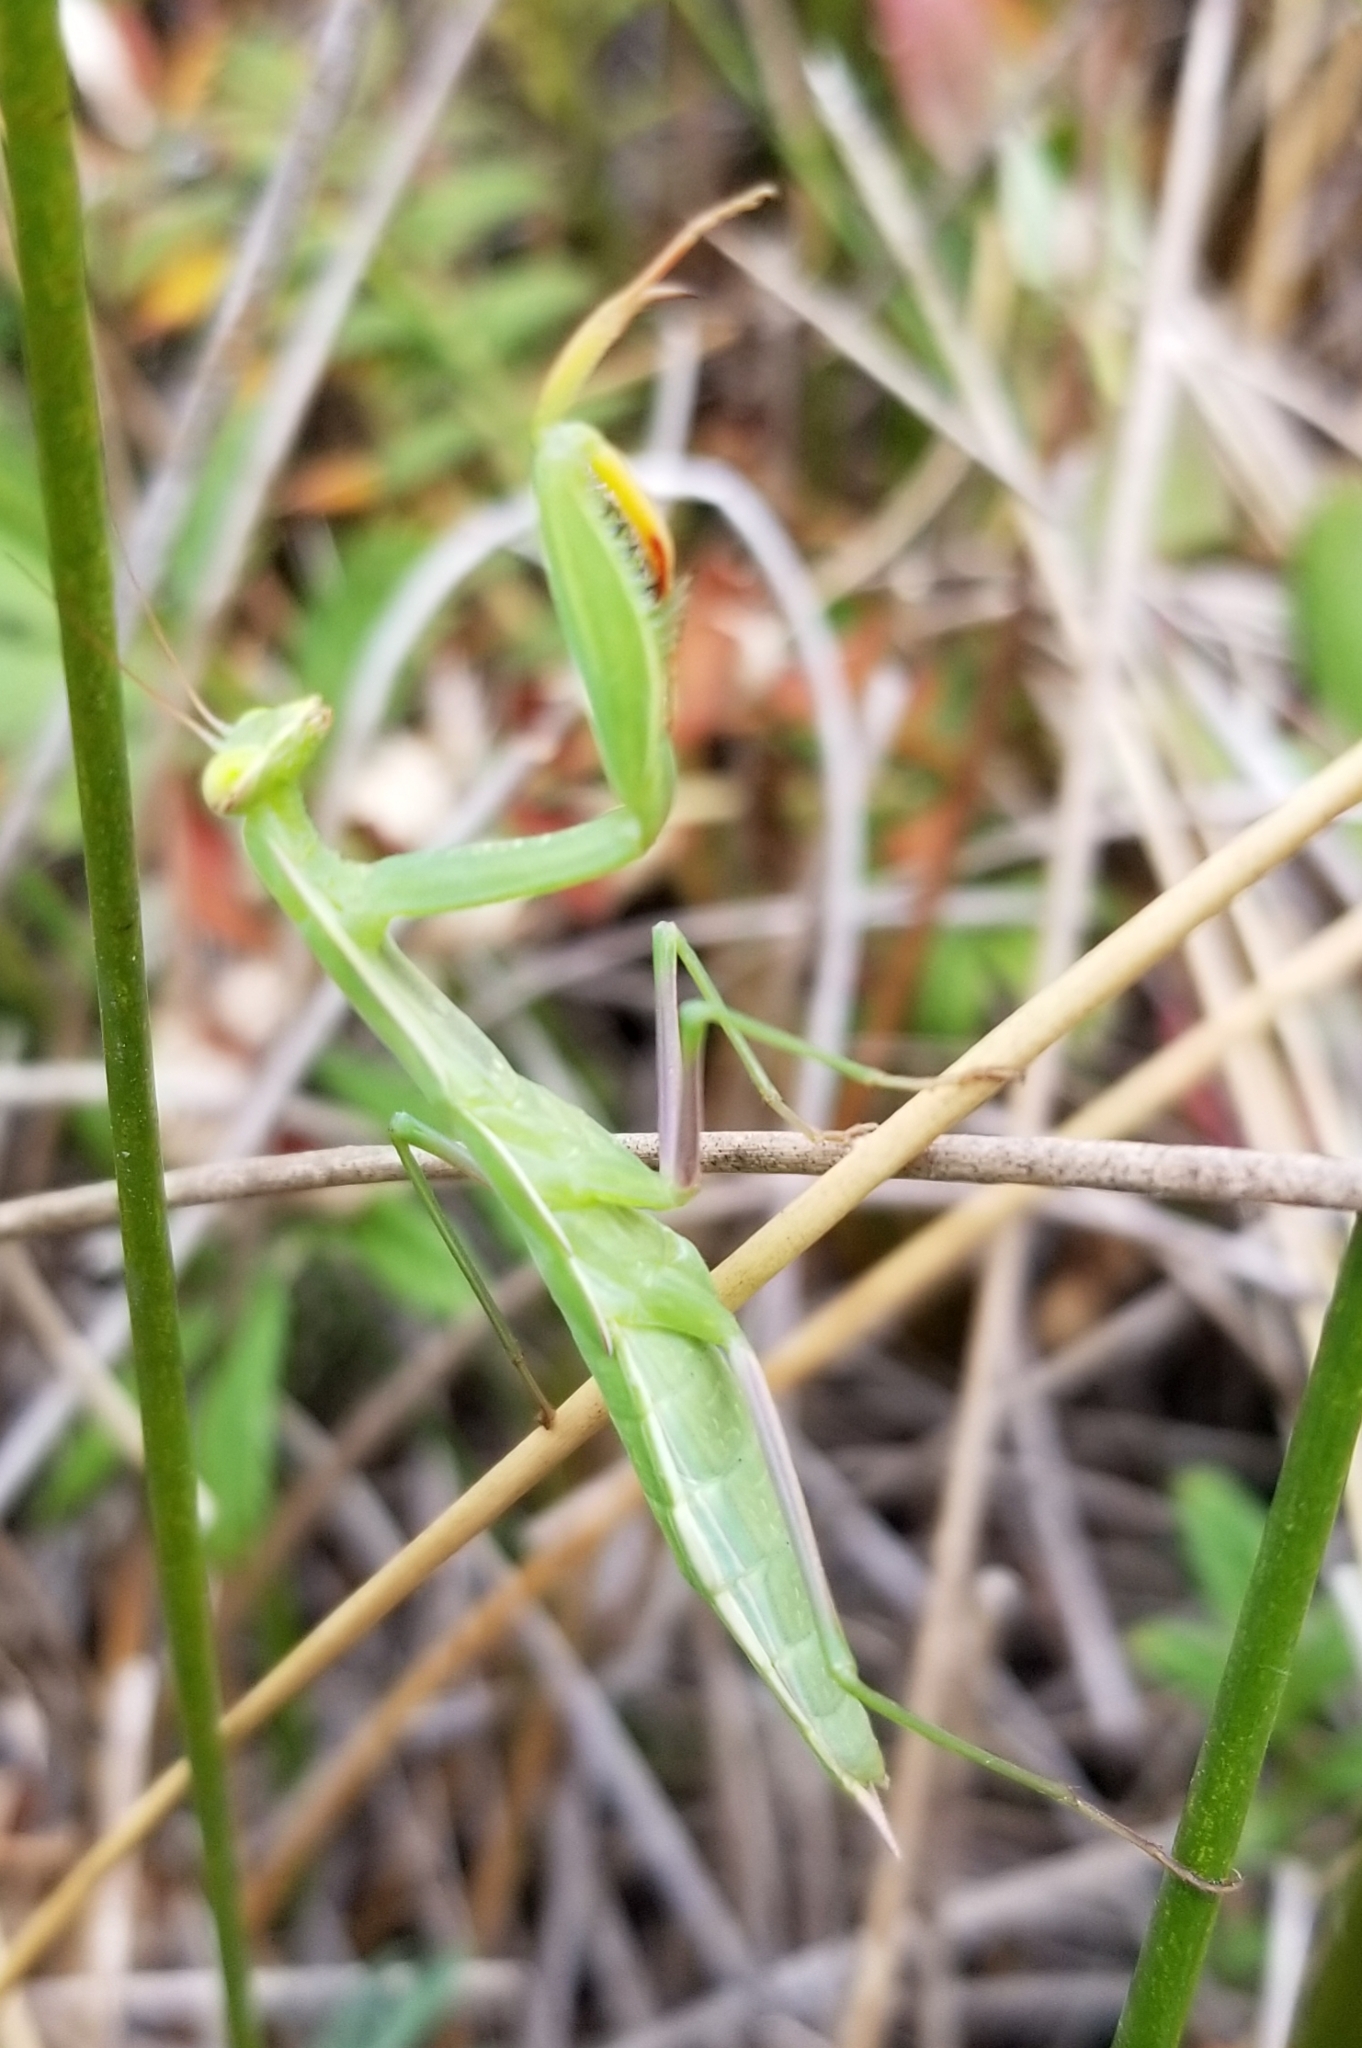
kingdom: Animalia
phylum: Arthropoda
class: Insecta
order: Mantodea
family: Mantidae
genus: Mantis
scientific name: Mantis religiosa
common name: Praying mantis
